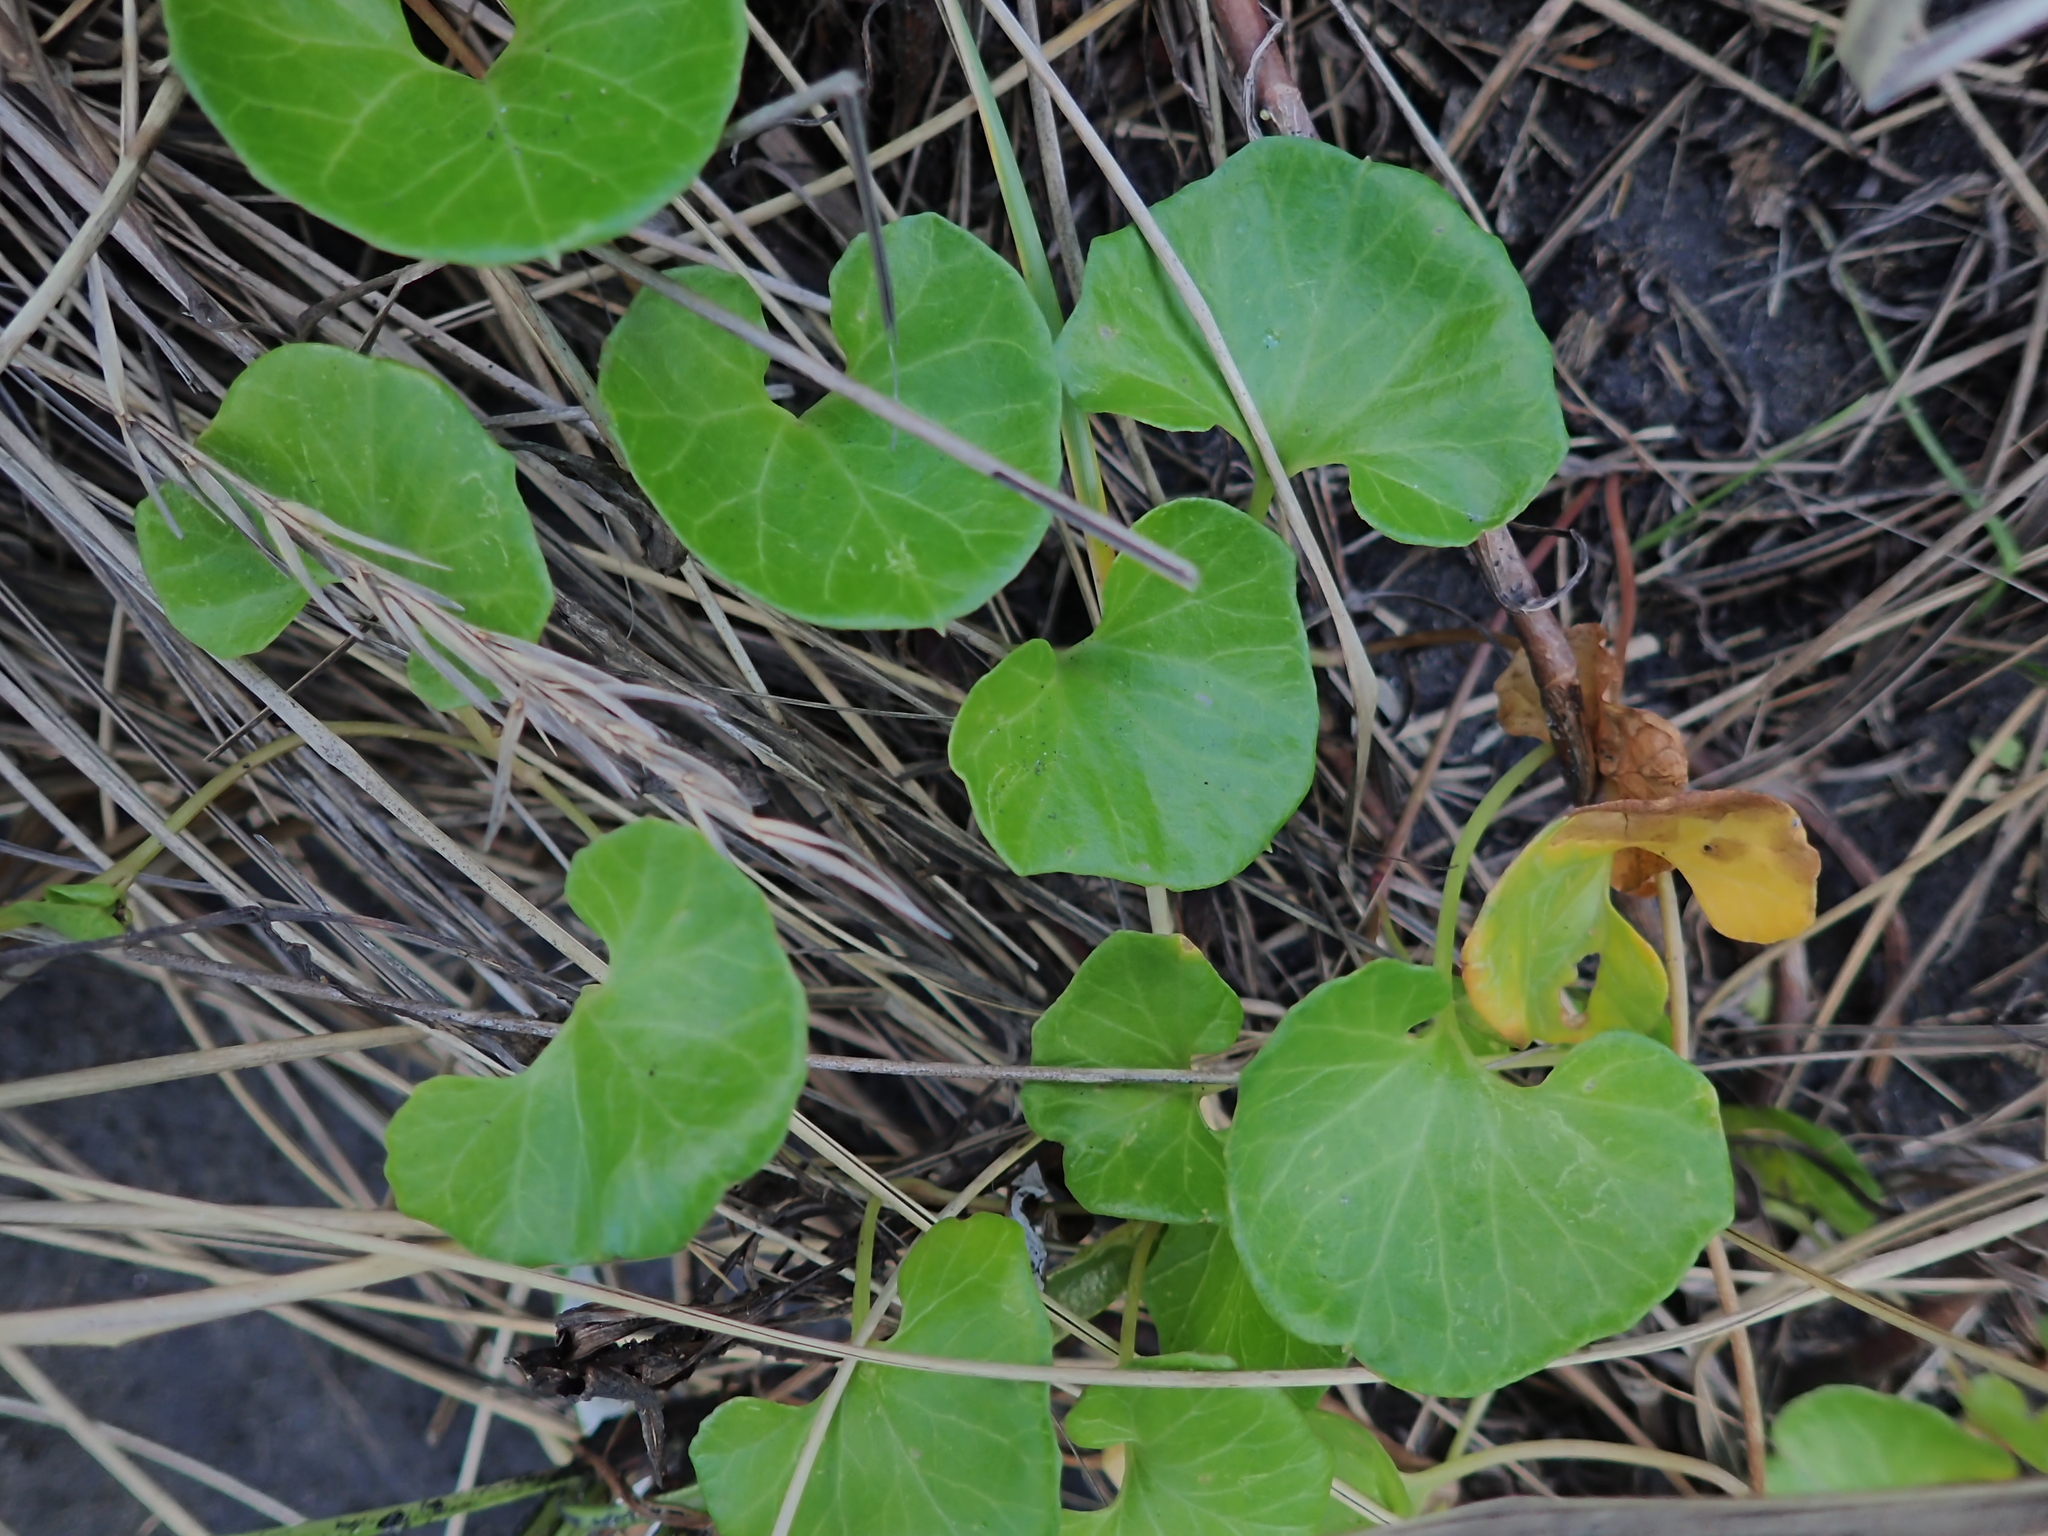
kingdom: Plantae
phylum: Tracheophyta
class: Magnoliopsida
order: Solanales
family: Convolvulaceae
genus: Calystegia
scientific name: Calystegia soldanella
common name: Sea bindweed
